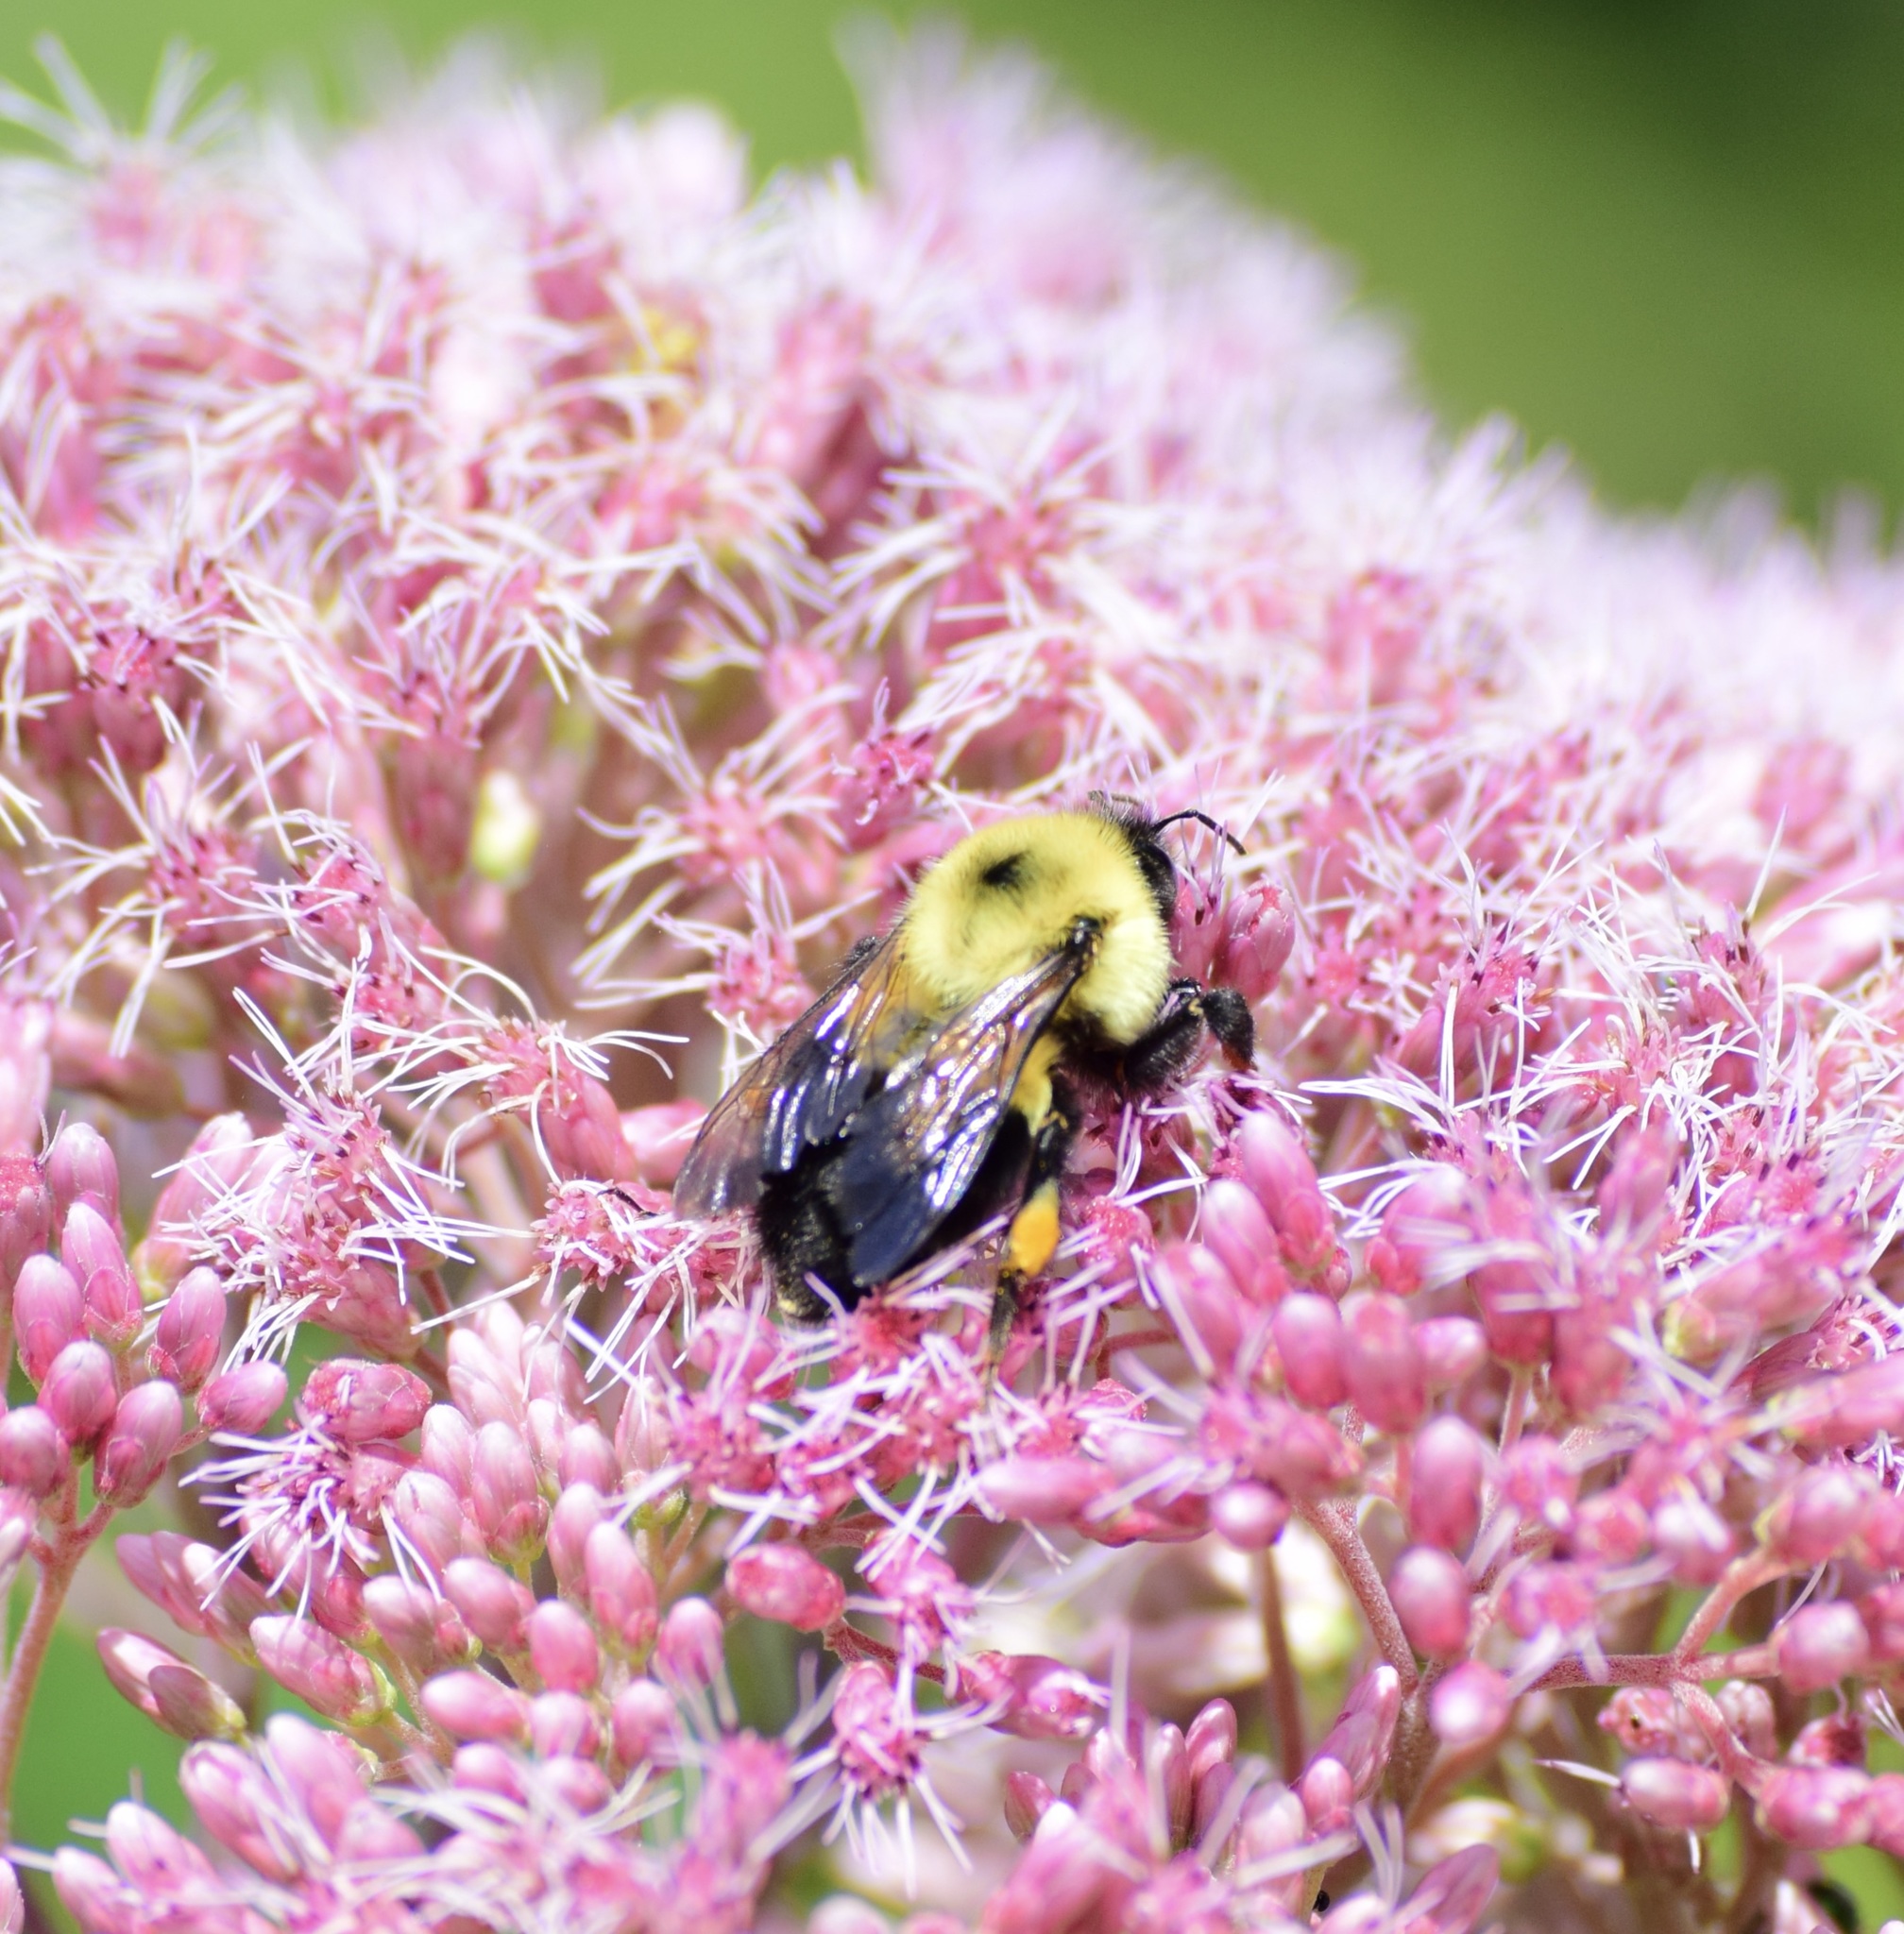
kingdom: Animalia
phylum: Arthropoda
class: Insecta
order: Hymenoptera
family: Apidae
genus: Bombus
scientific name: Bombus bimaculatus
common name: Two-spotted bumble bee
